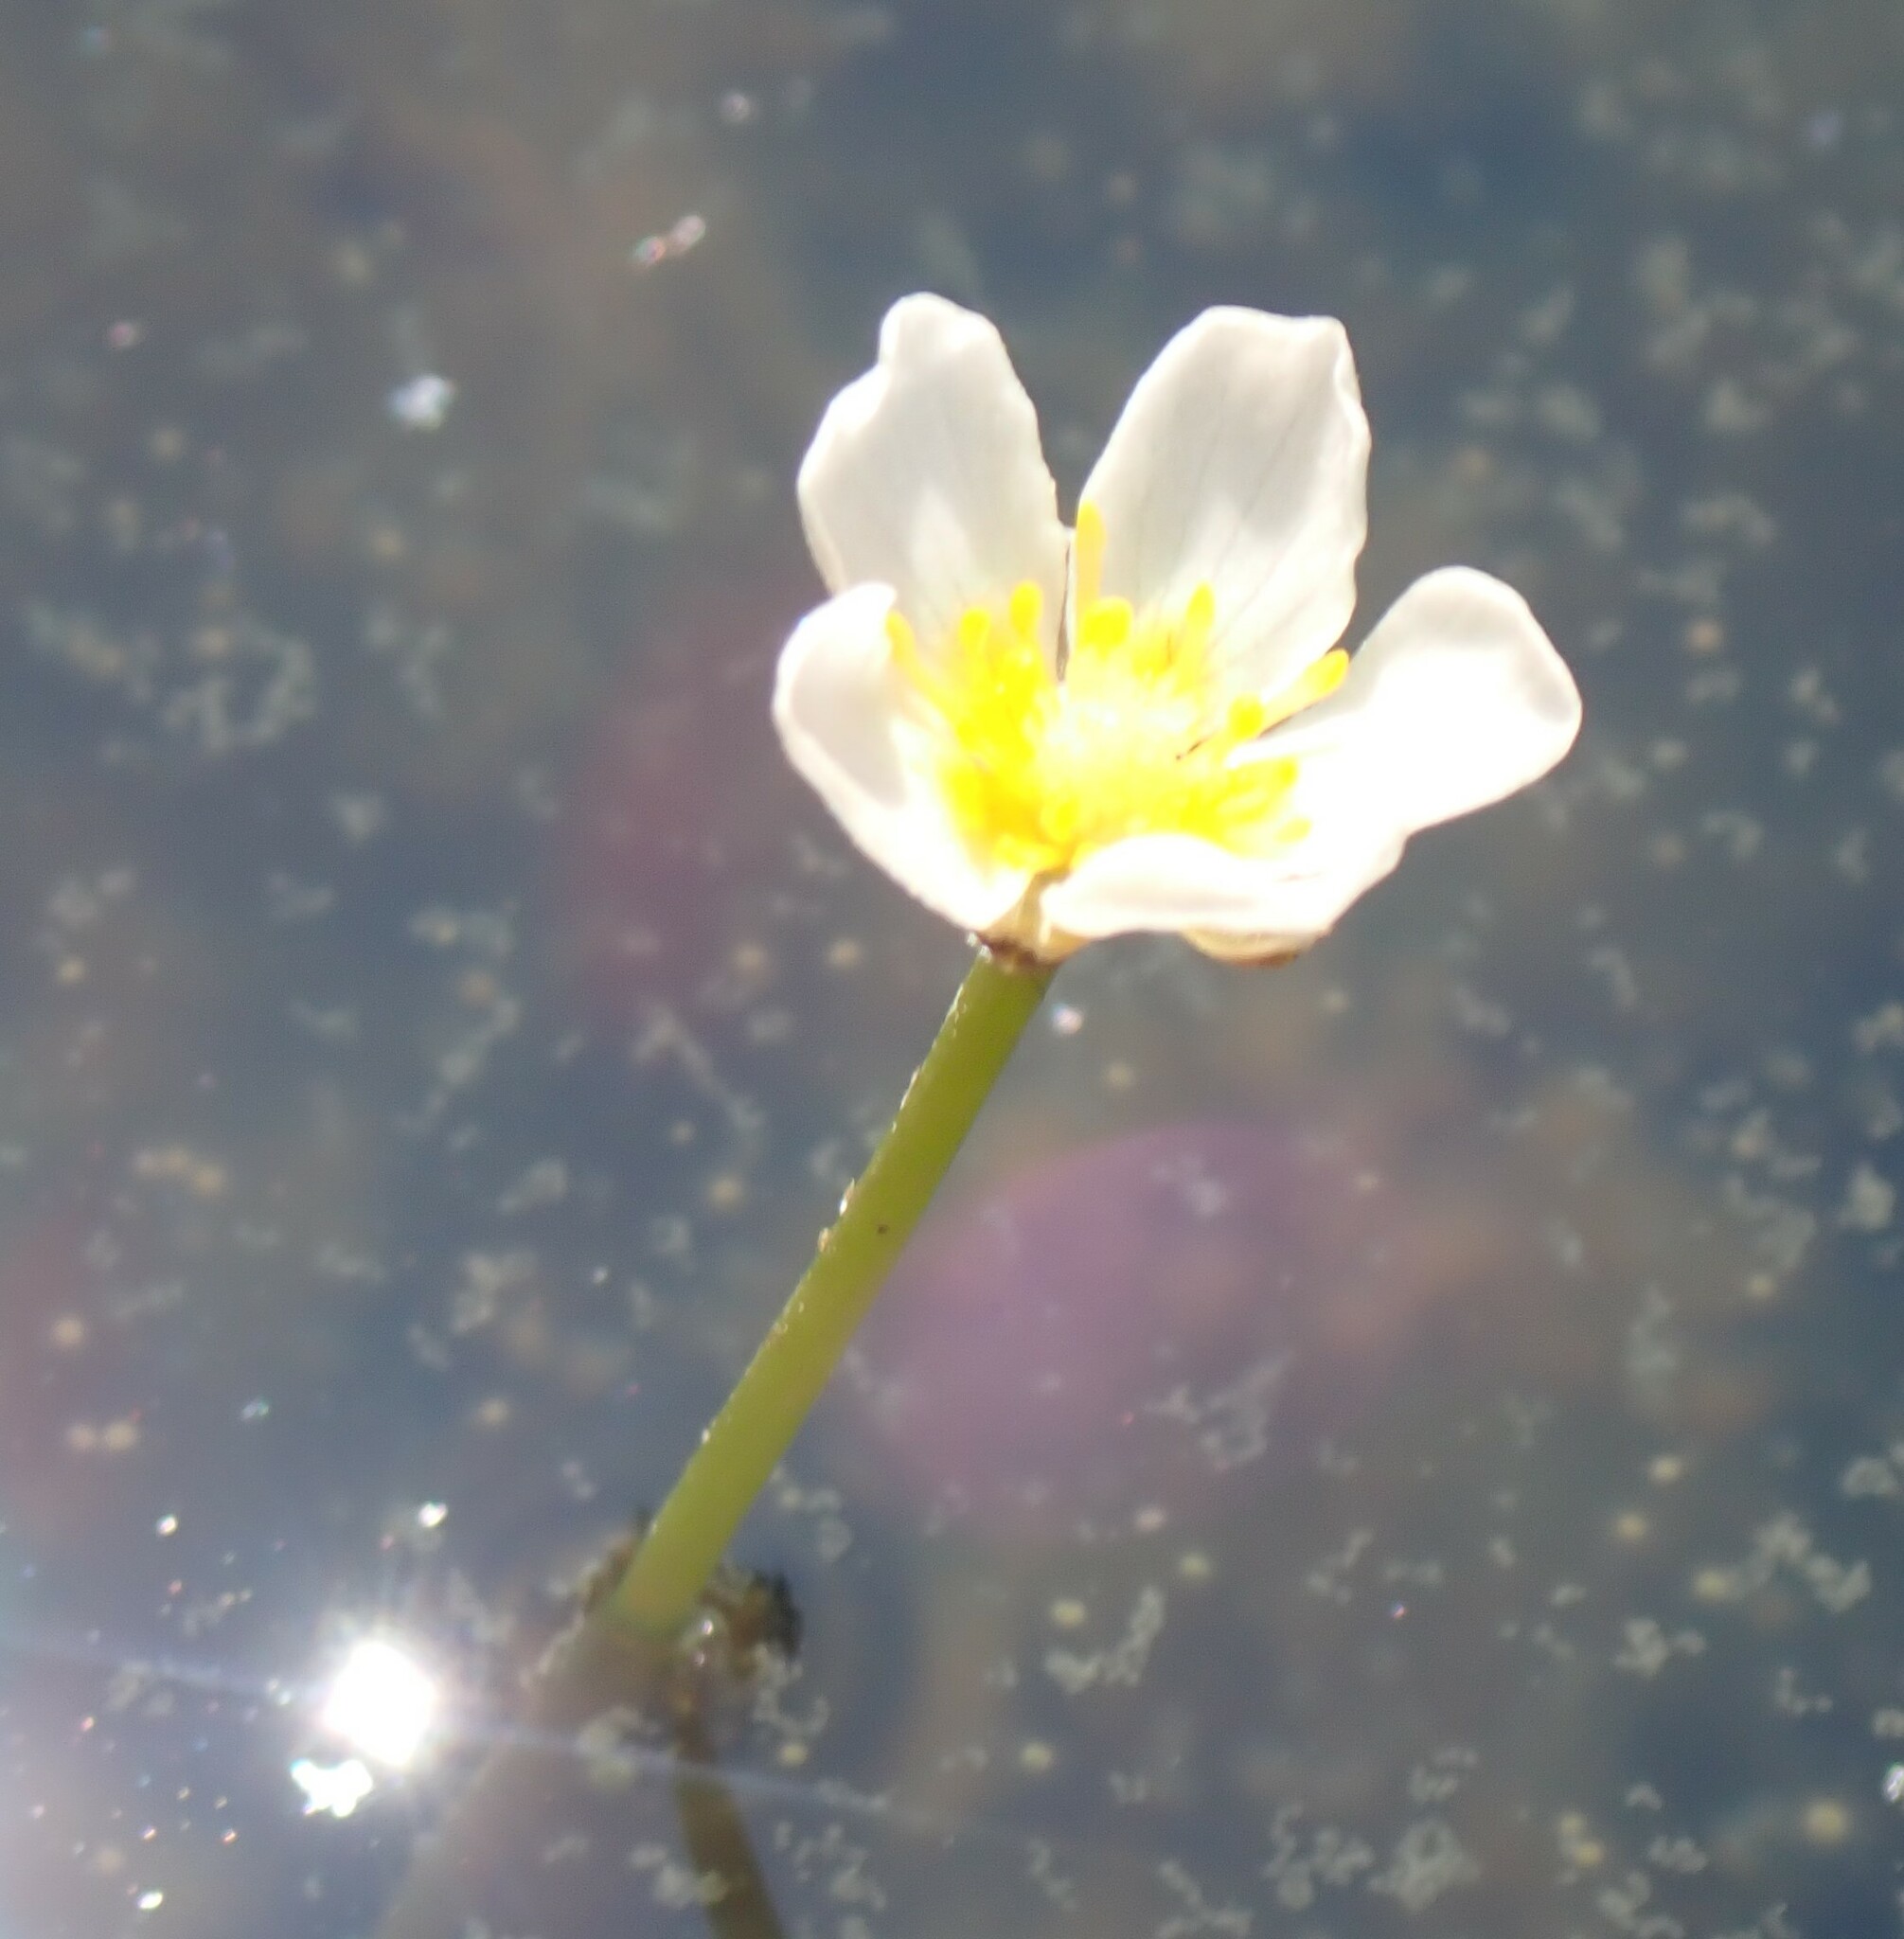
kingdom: Plantae
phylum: Tracheophyta
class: Magnoliopsida
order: Ranunculales
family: Ranunculaceae
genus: Ranunculus
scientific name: Ranunculus trichophyllus
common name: Thread-leaved water-crowfoot
